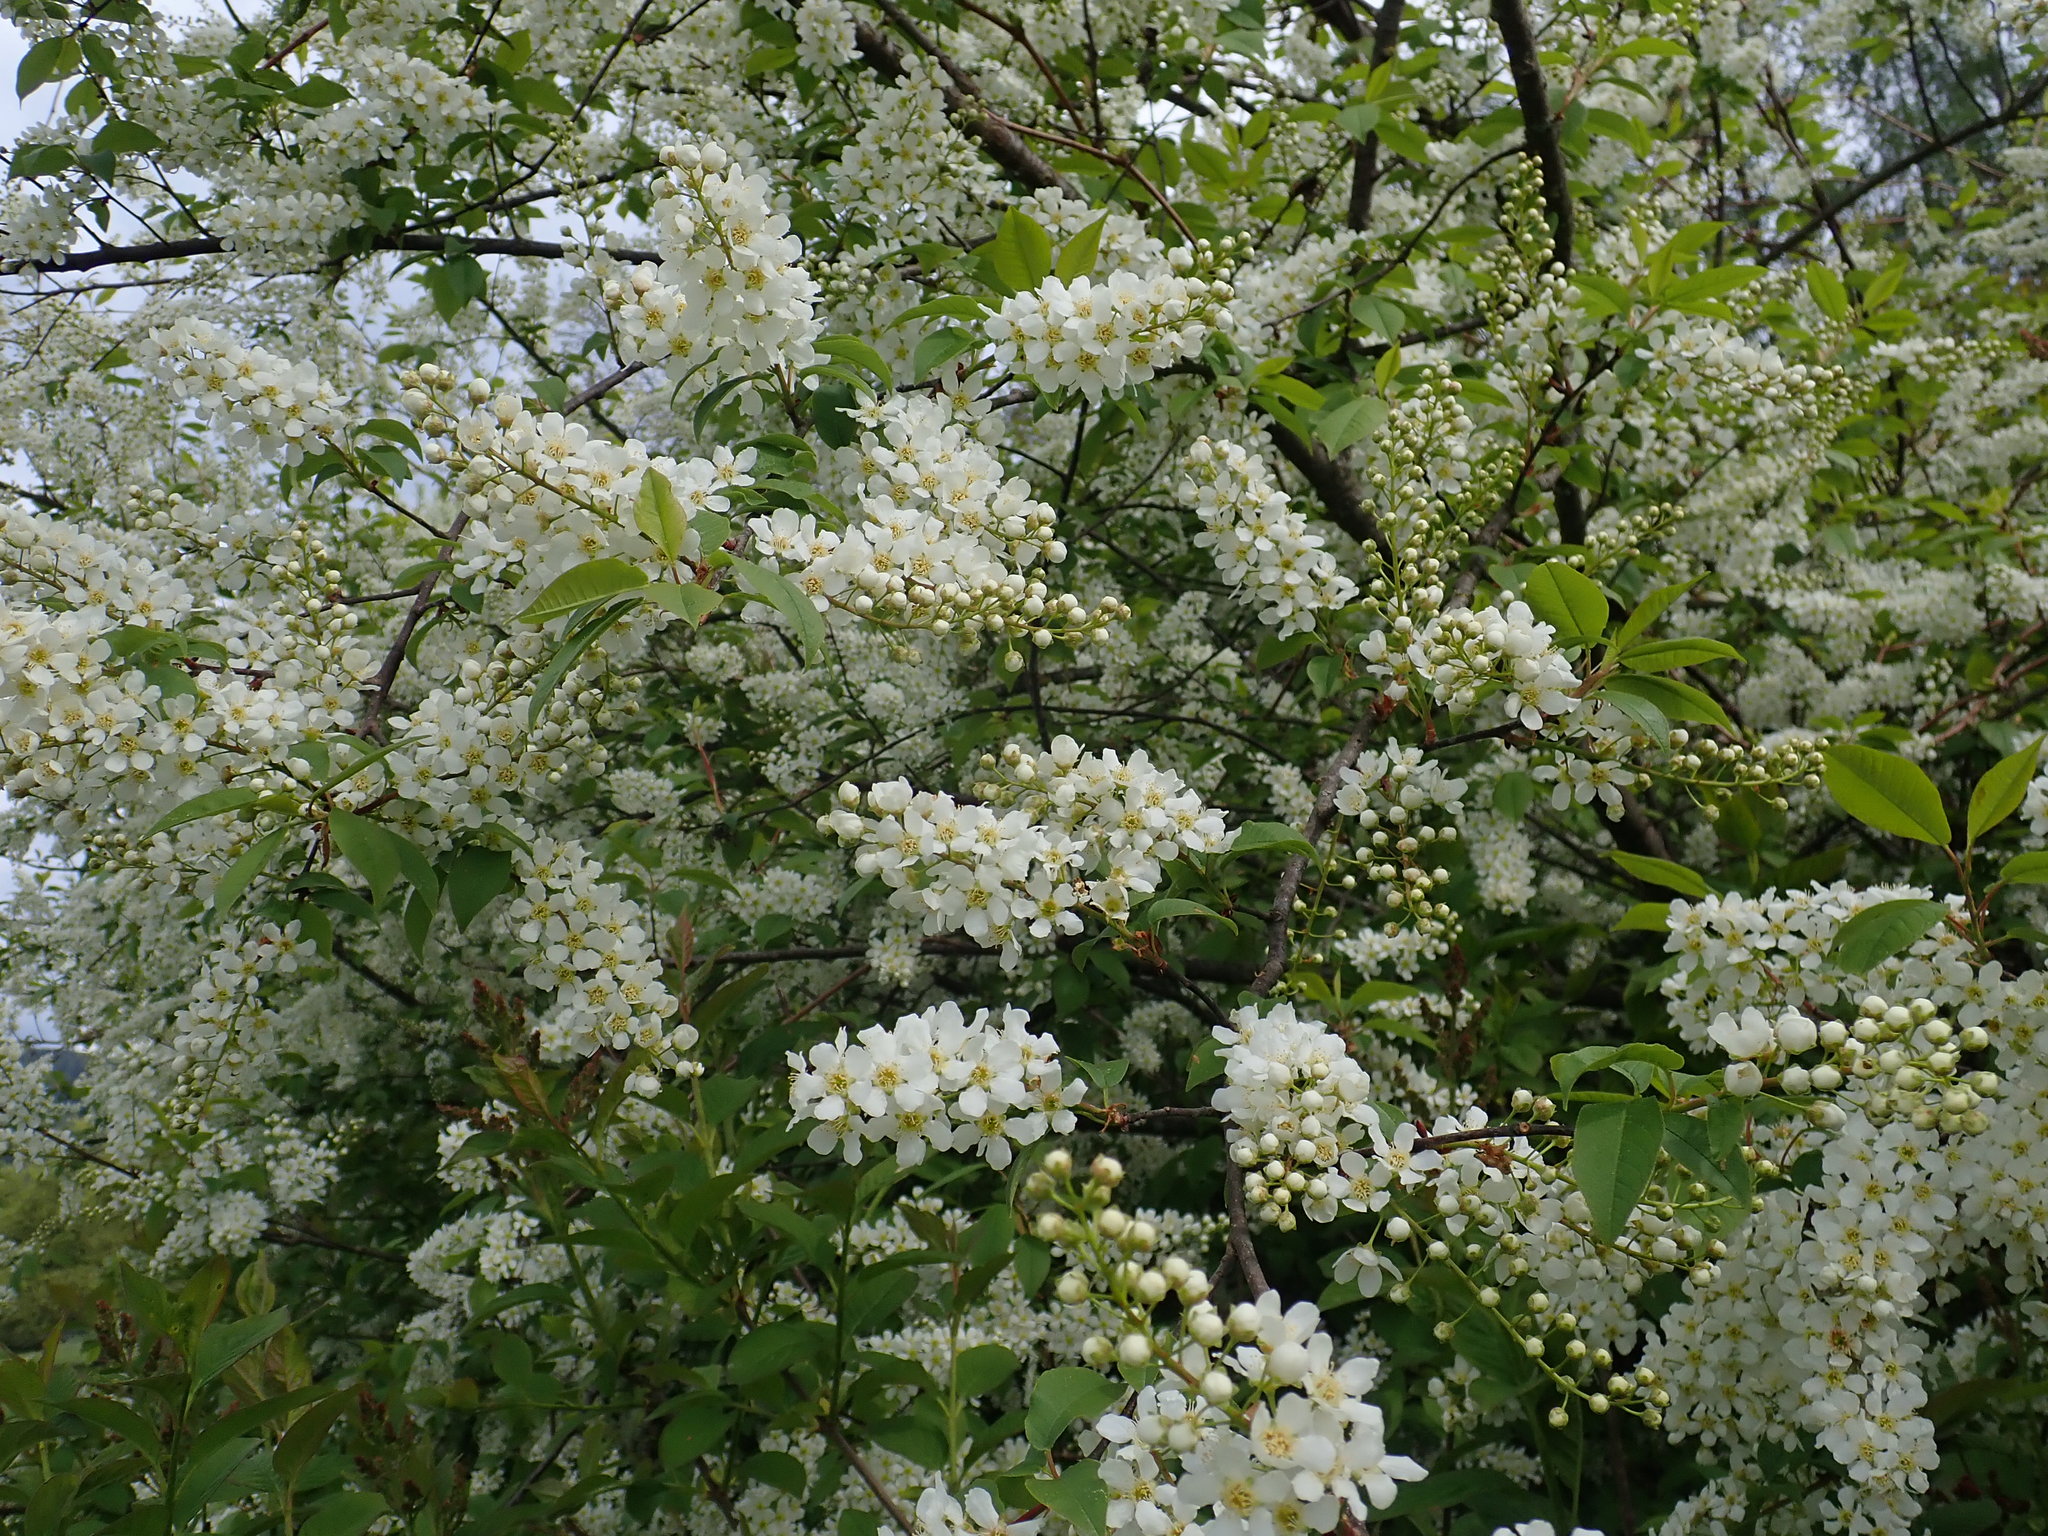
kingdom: Plantae
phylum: Tracheophyta
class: Magnoliopsida
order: Rosales
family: Rosaceae
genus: Prunus
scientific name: Prunus padus
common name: Bird cherry
